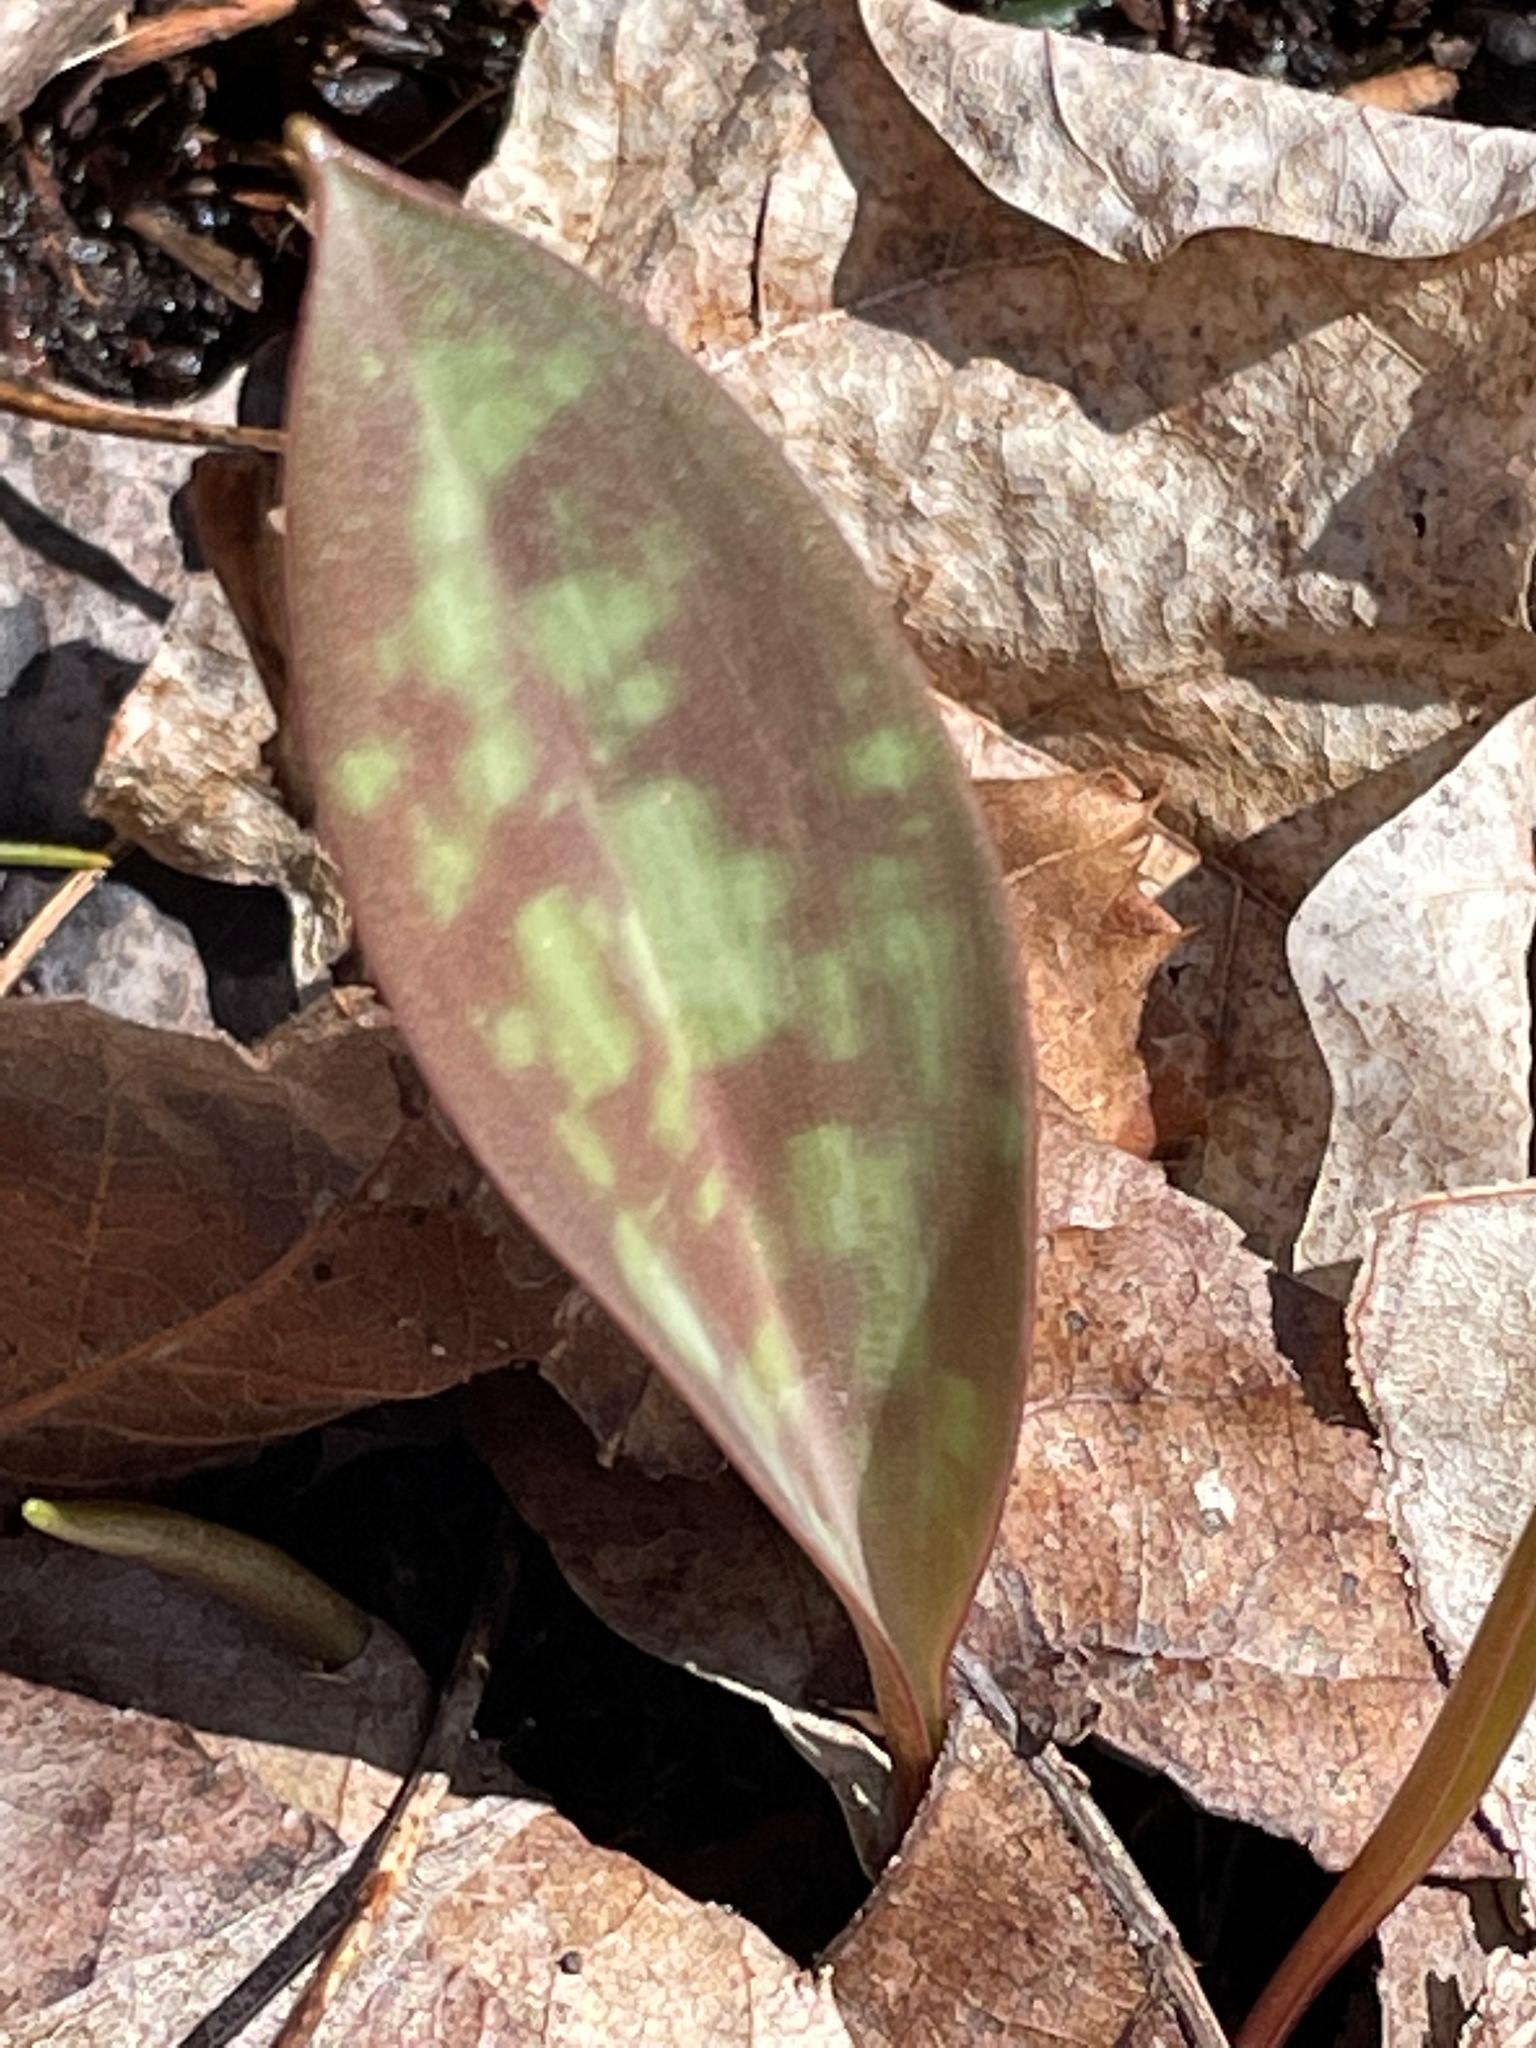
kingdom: Plantae
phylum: Tracheophyta
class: Liliopsida
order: Liliales
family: Liliaceae
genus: Erythronium
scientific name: Erythronium americanum
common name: Yellow adder's-tongue
